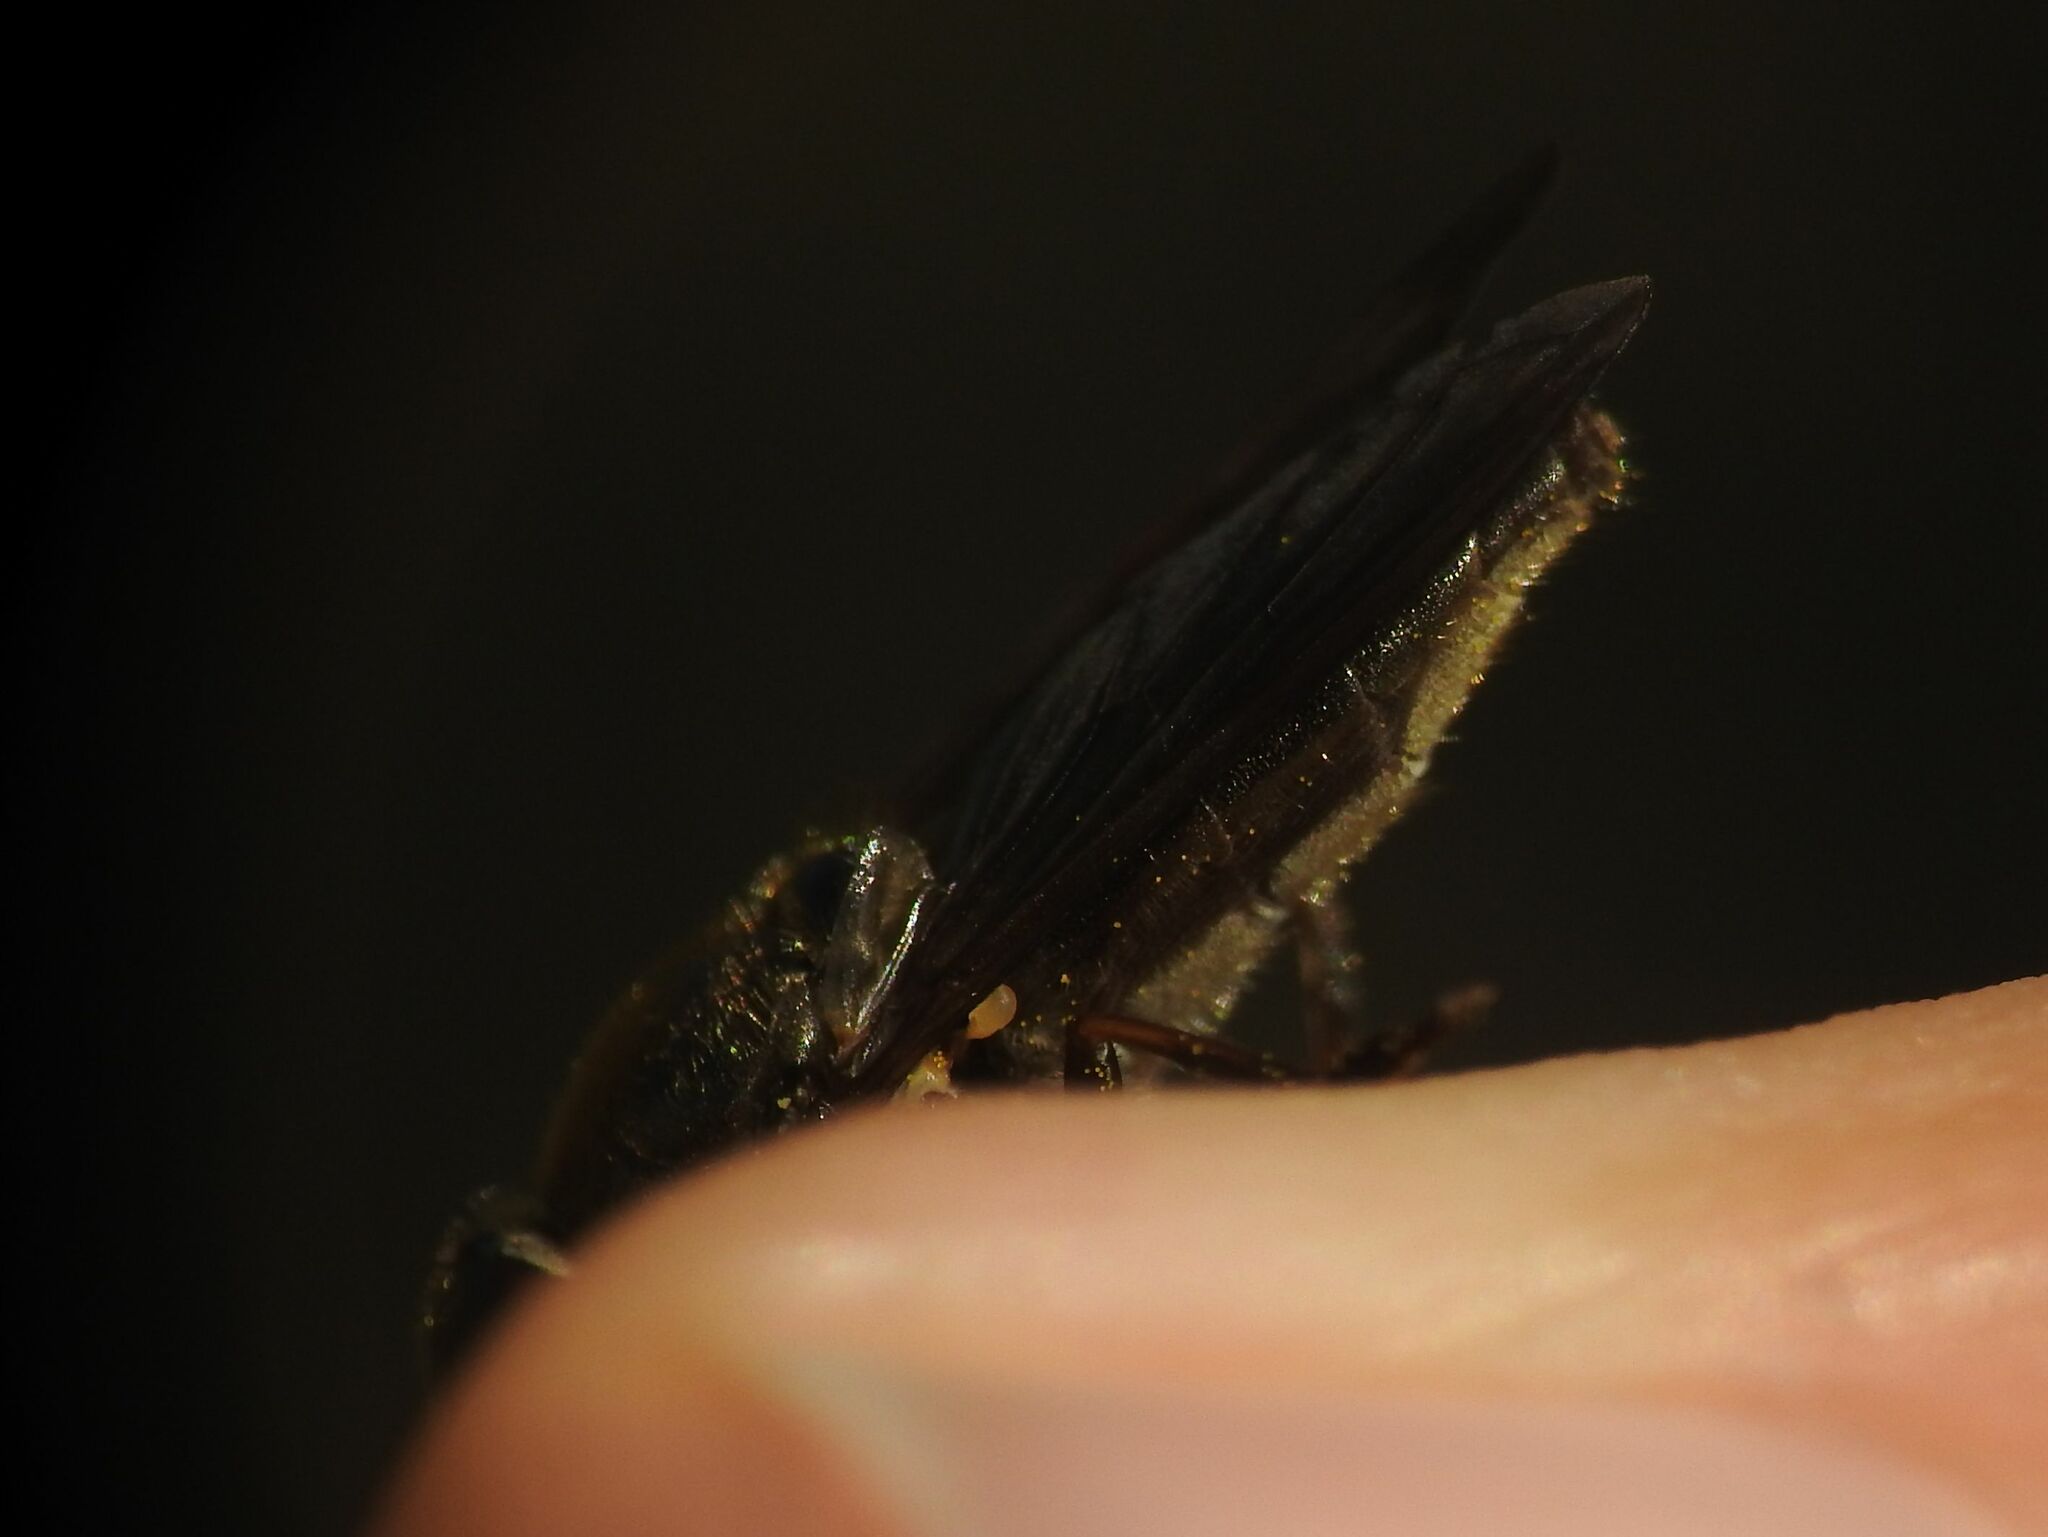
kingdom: Animalia
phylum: Arthropoda
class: Insecta
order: Diptera
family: Syrphidae
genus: Cheilosia
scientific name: Cheilosia laticornis
